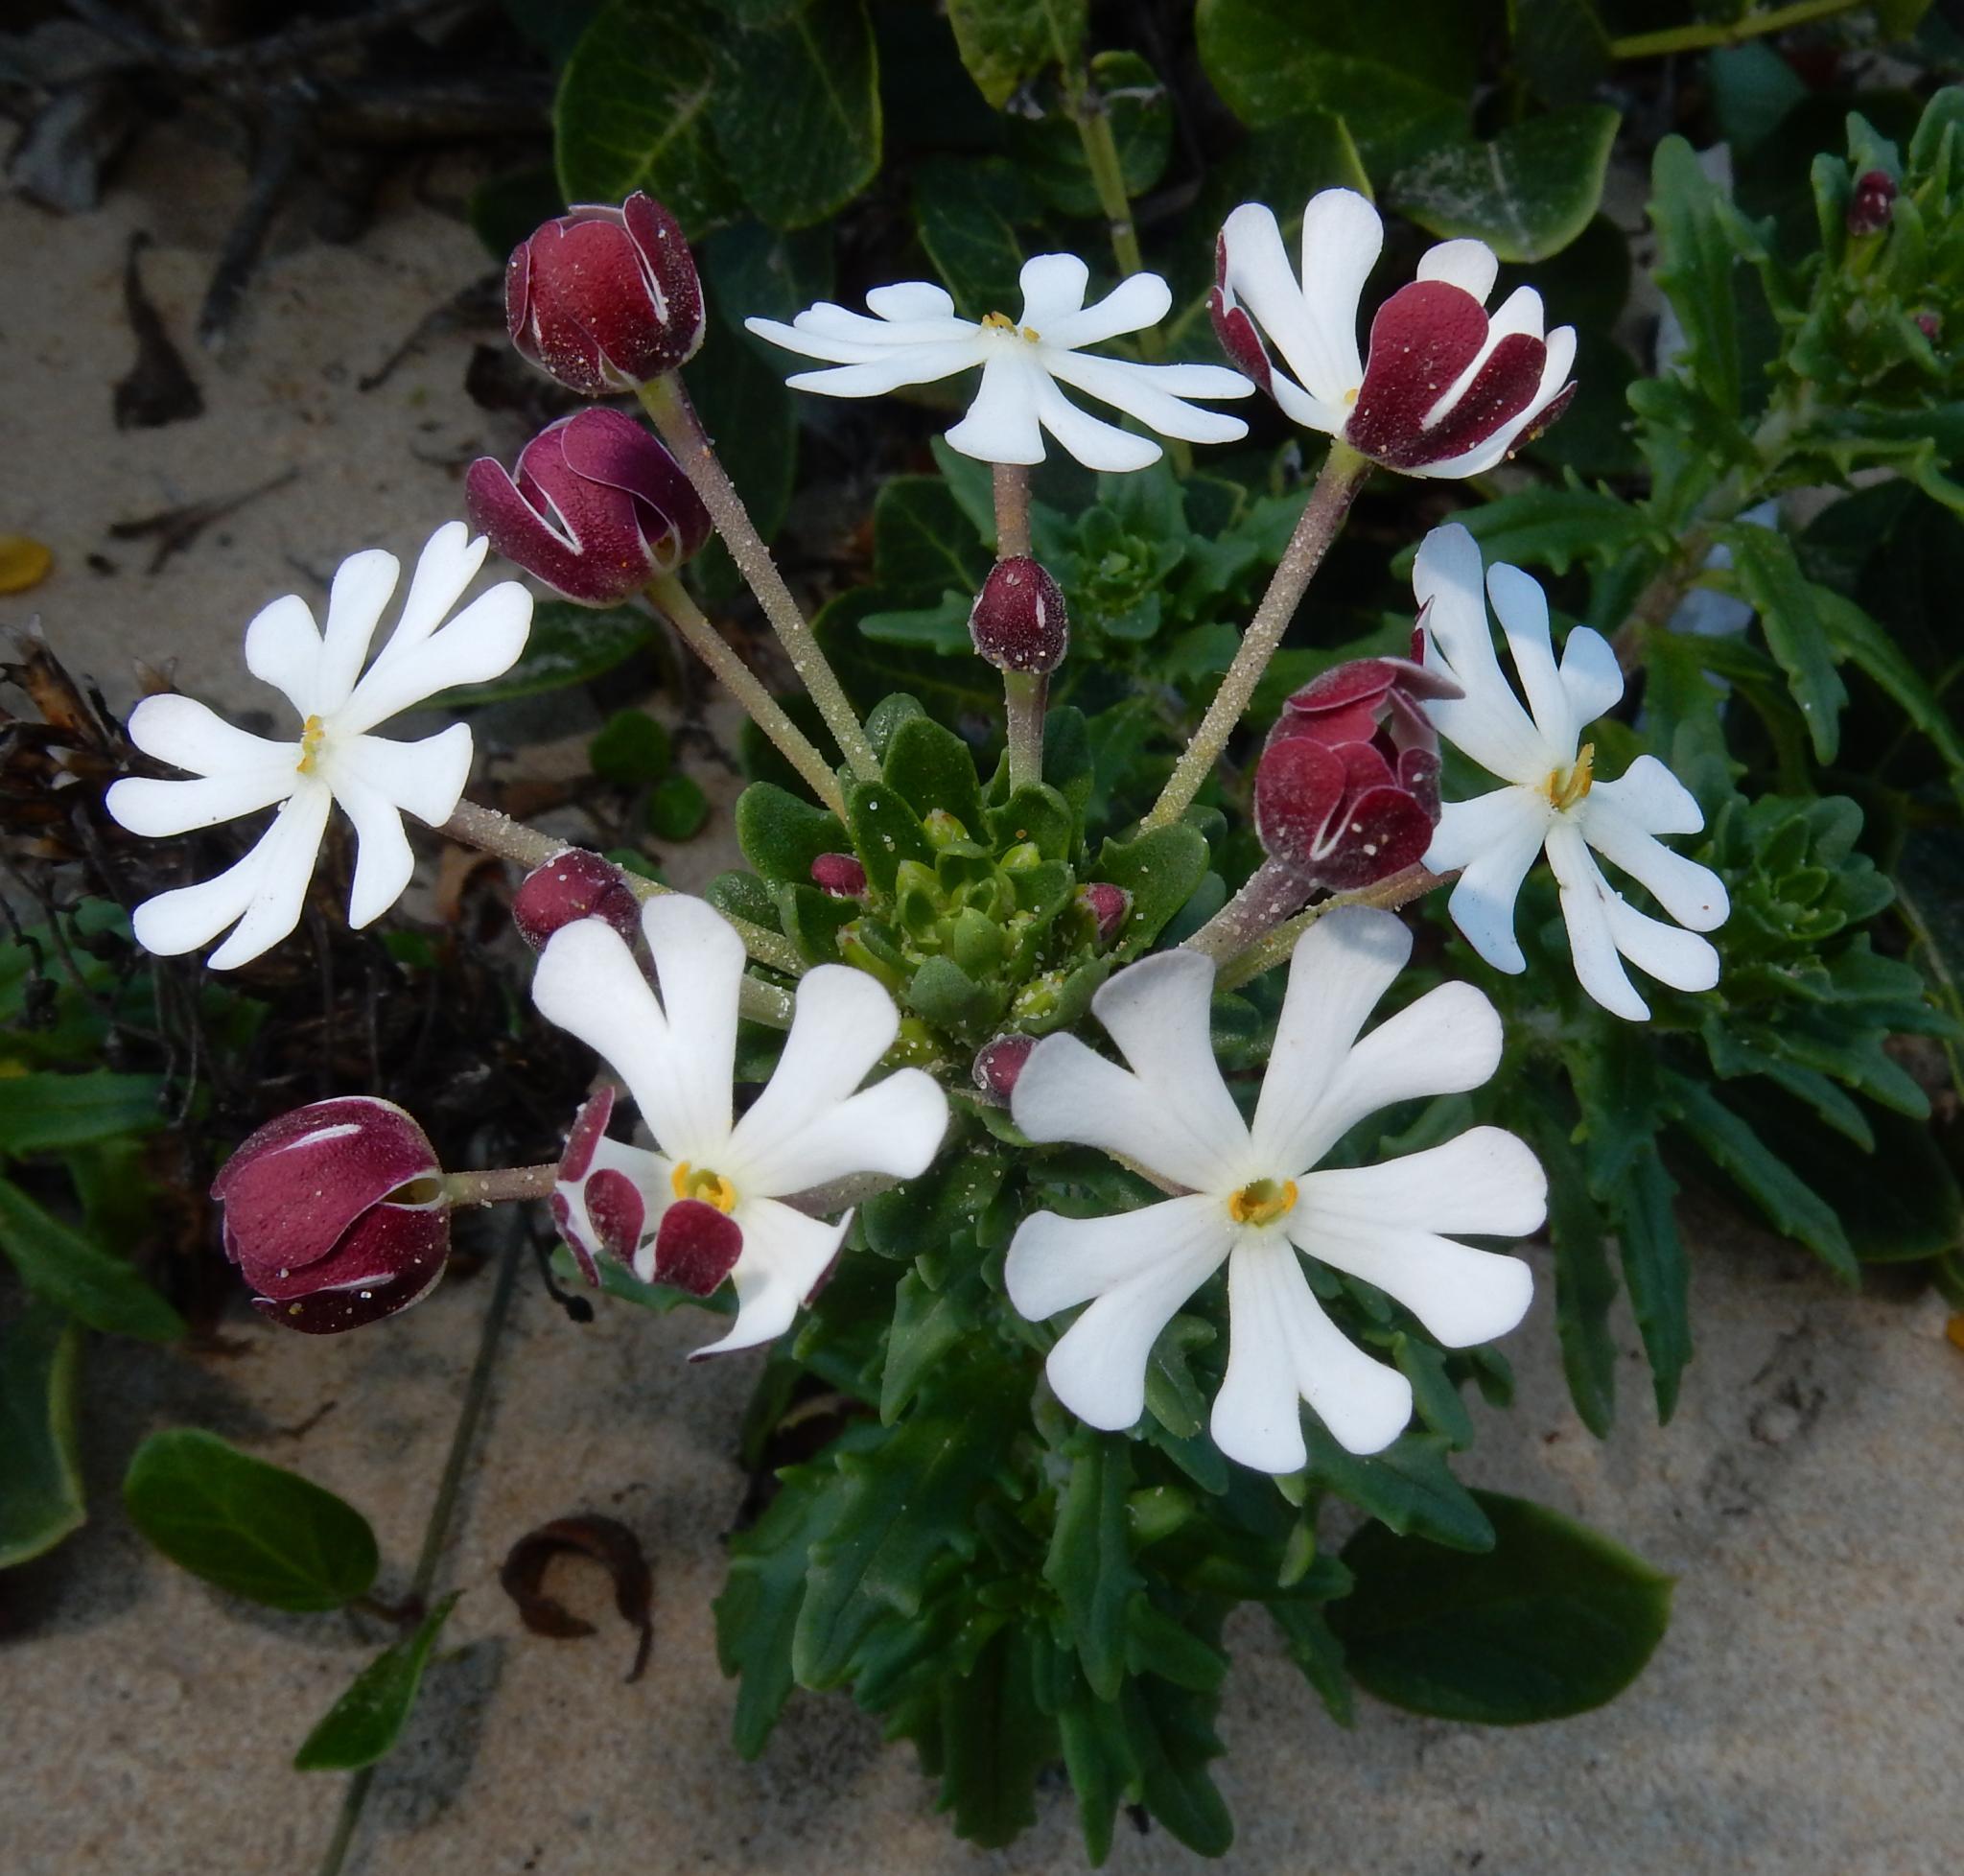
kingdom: Plantae
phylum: Tracheophyta
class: Magnoliopsida
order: Lamiales
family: Scrophulariaceae
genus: Zaluzianskya
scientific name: Zaluzianskya maritima
